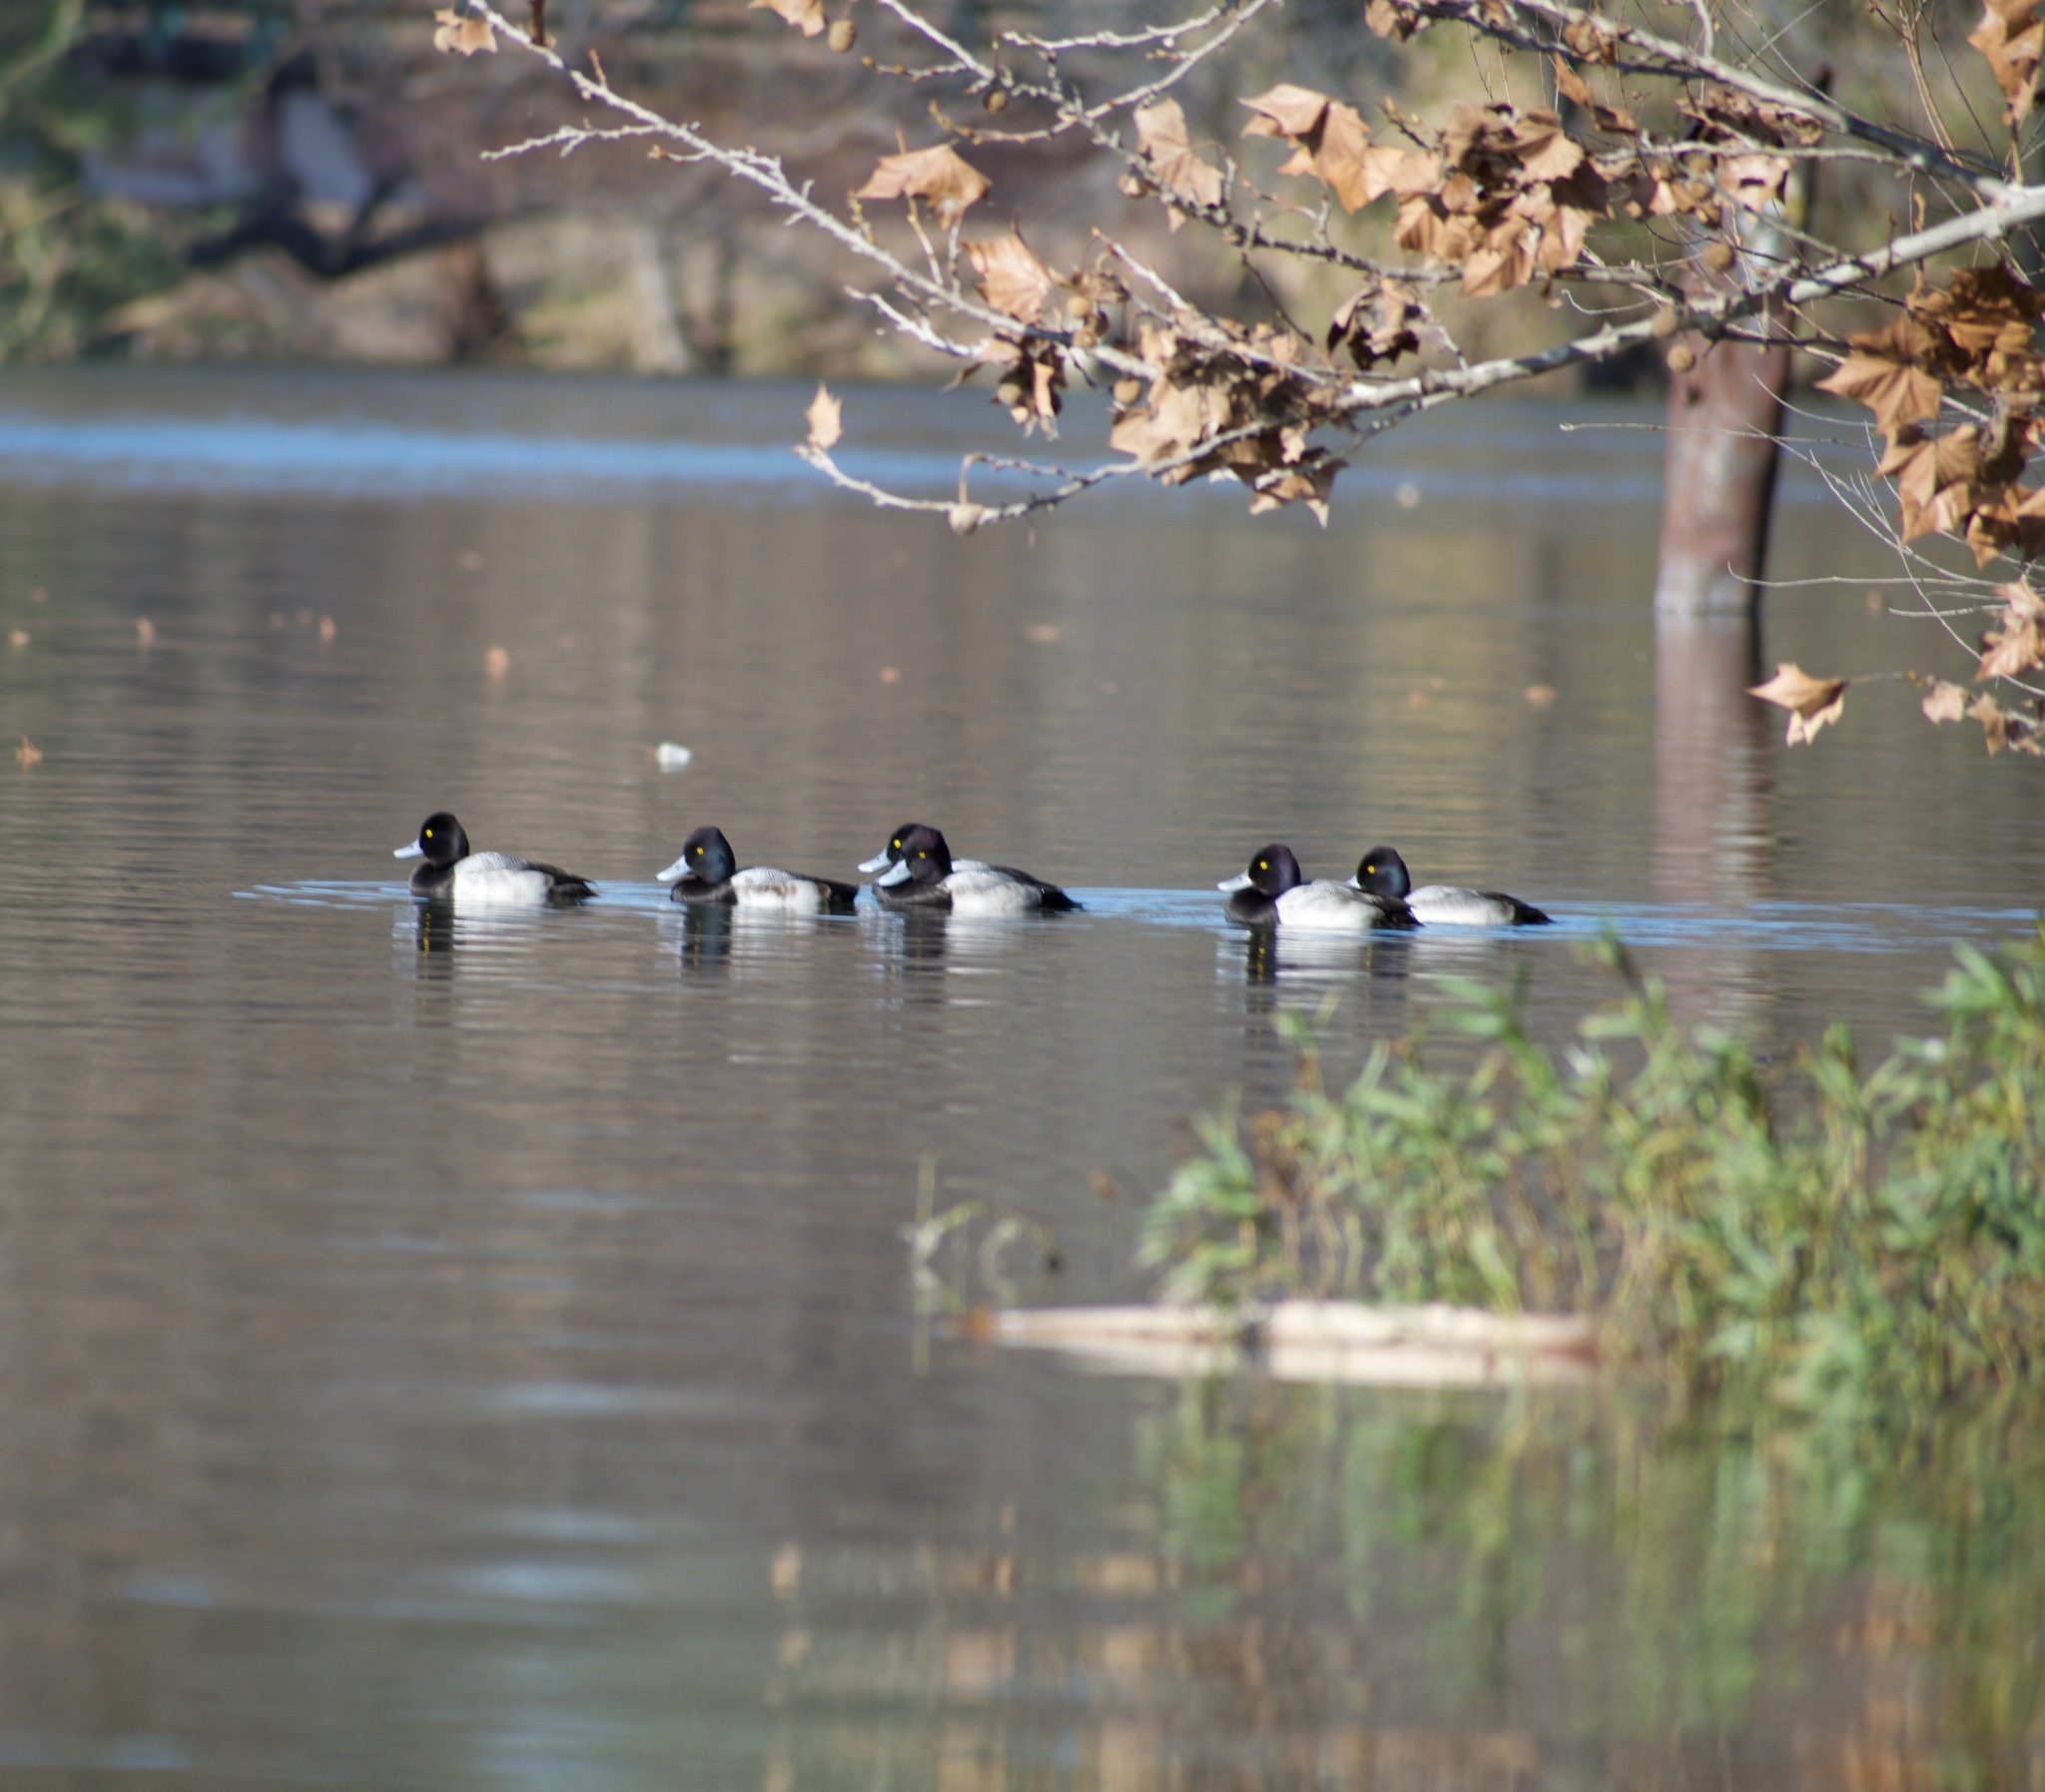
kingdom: Animalia
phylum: Chordata
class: Aves
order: Anseriformes
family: Anatidae
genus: Aythya
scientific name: Aythya affinis
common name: Lesser scaup
